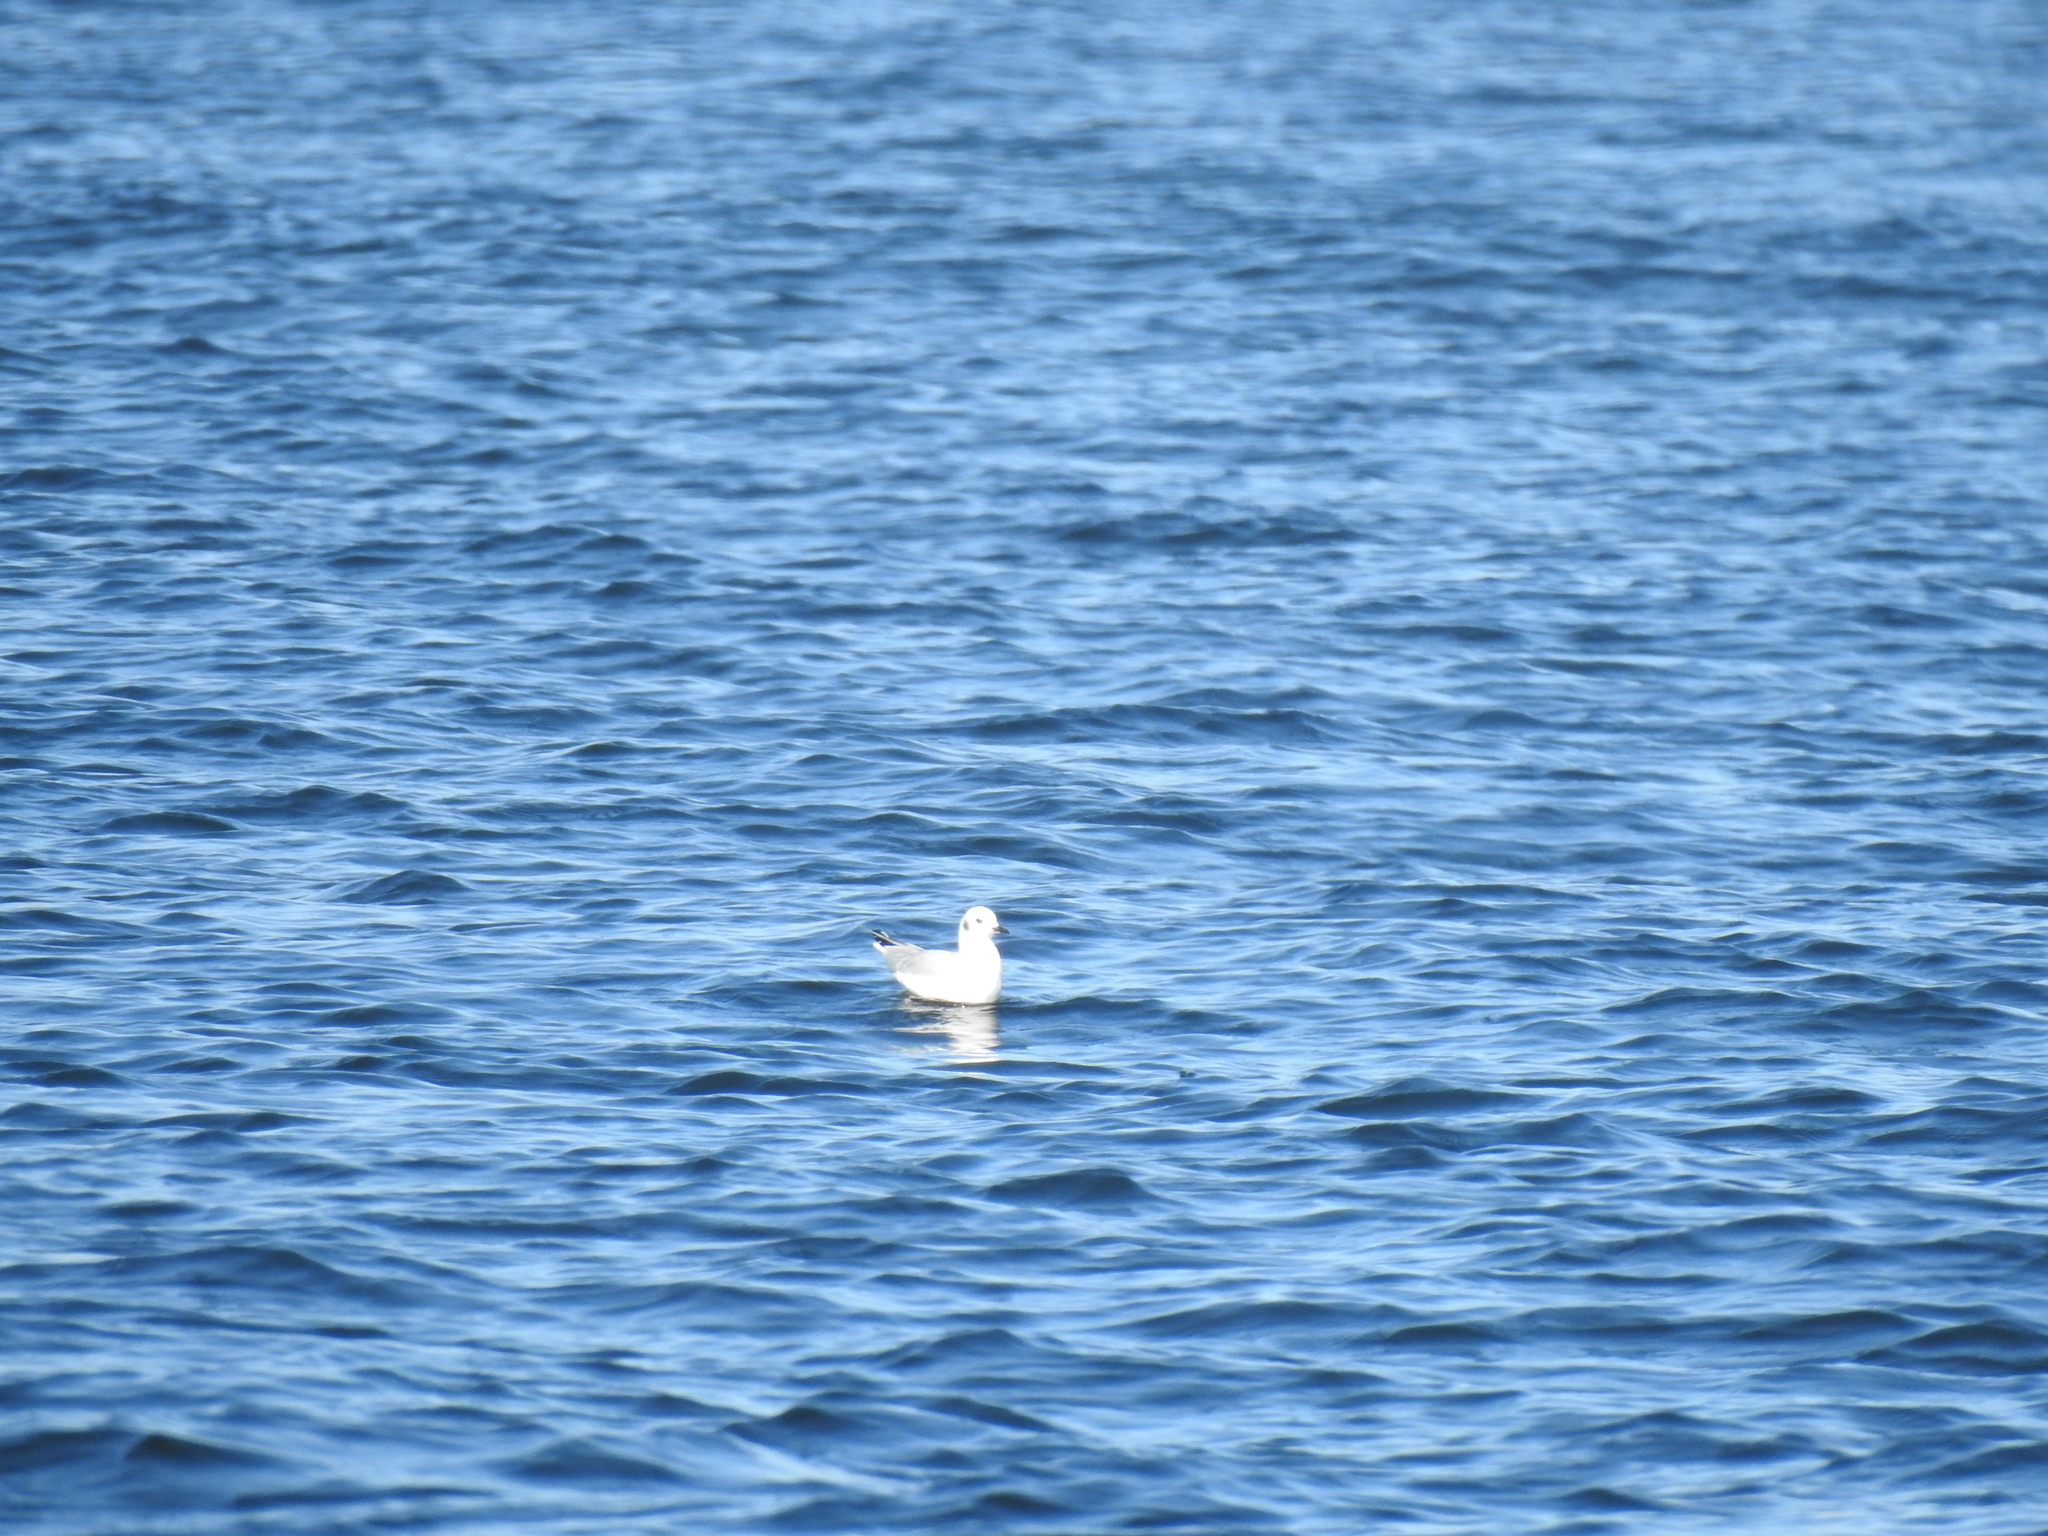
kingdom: Animalia
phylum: Chordata
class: Aves
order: Charadriiformes
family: Laridae
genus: Chroicocephalus
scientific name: Chroicocephalus philadelphia
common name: Bonaparte's gull
